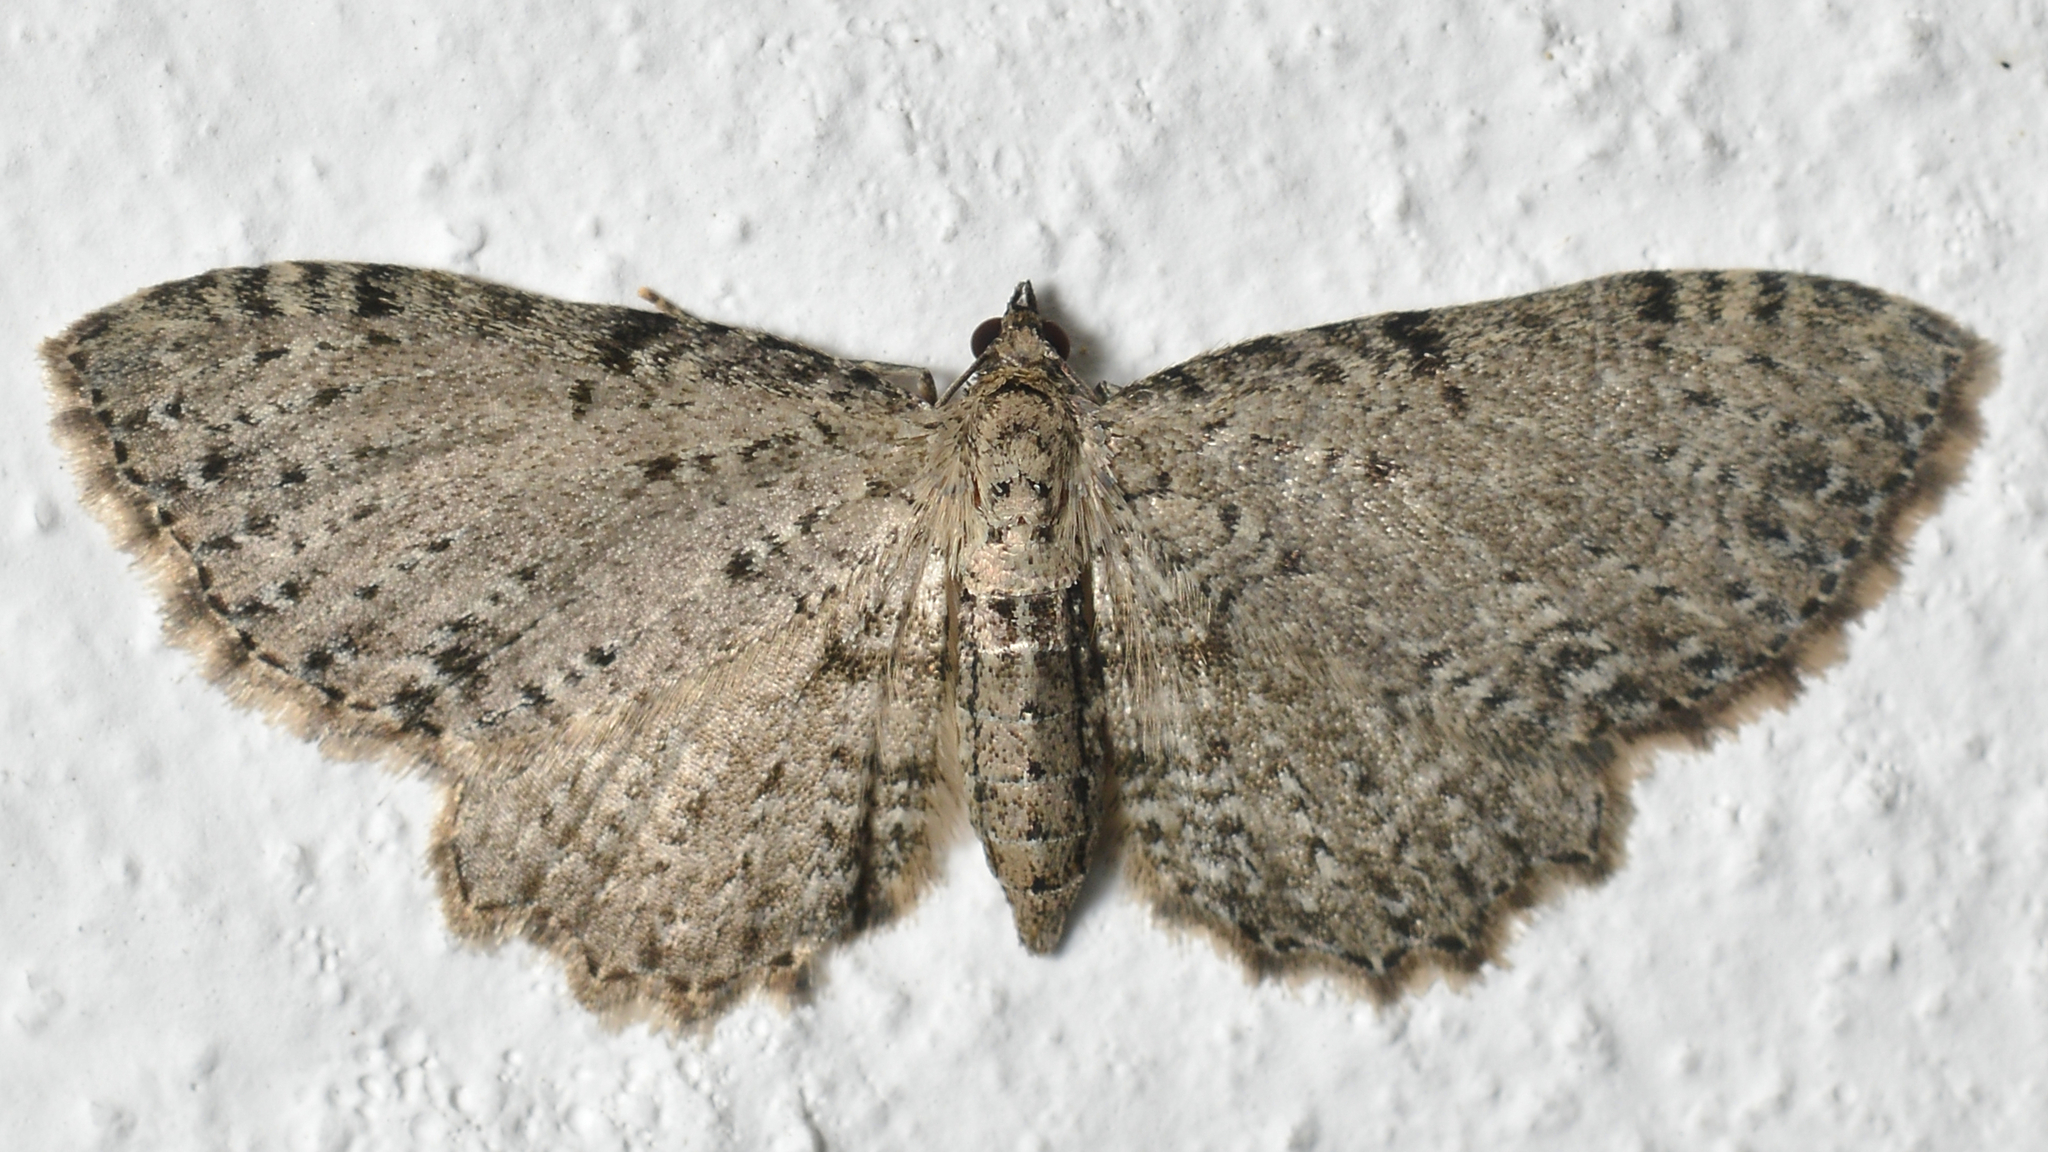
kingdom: Animalia
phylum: Arthropoda
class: Insecta
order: Lepidoptera
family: Geometridae
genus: Anticollix
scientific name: Anticollix sparsata
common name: Dentated pug
